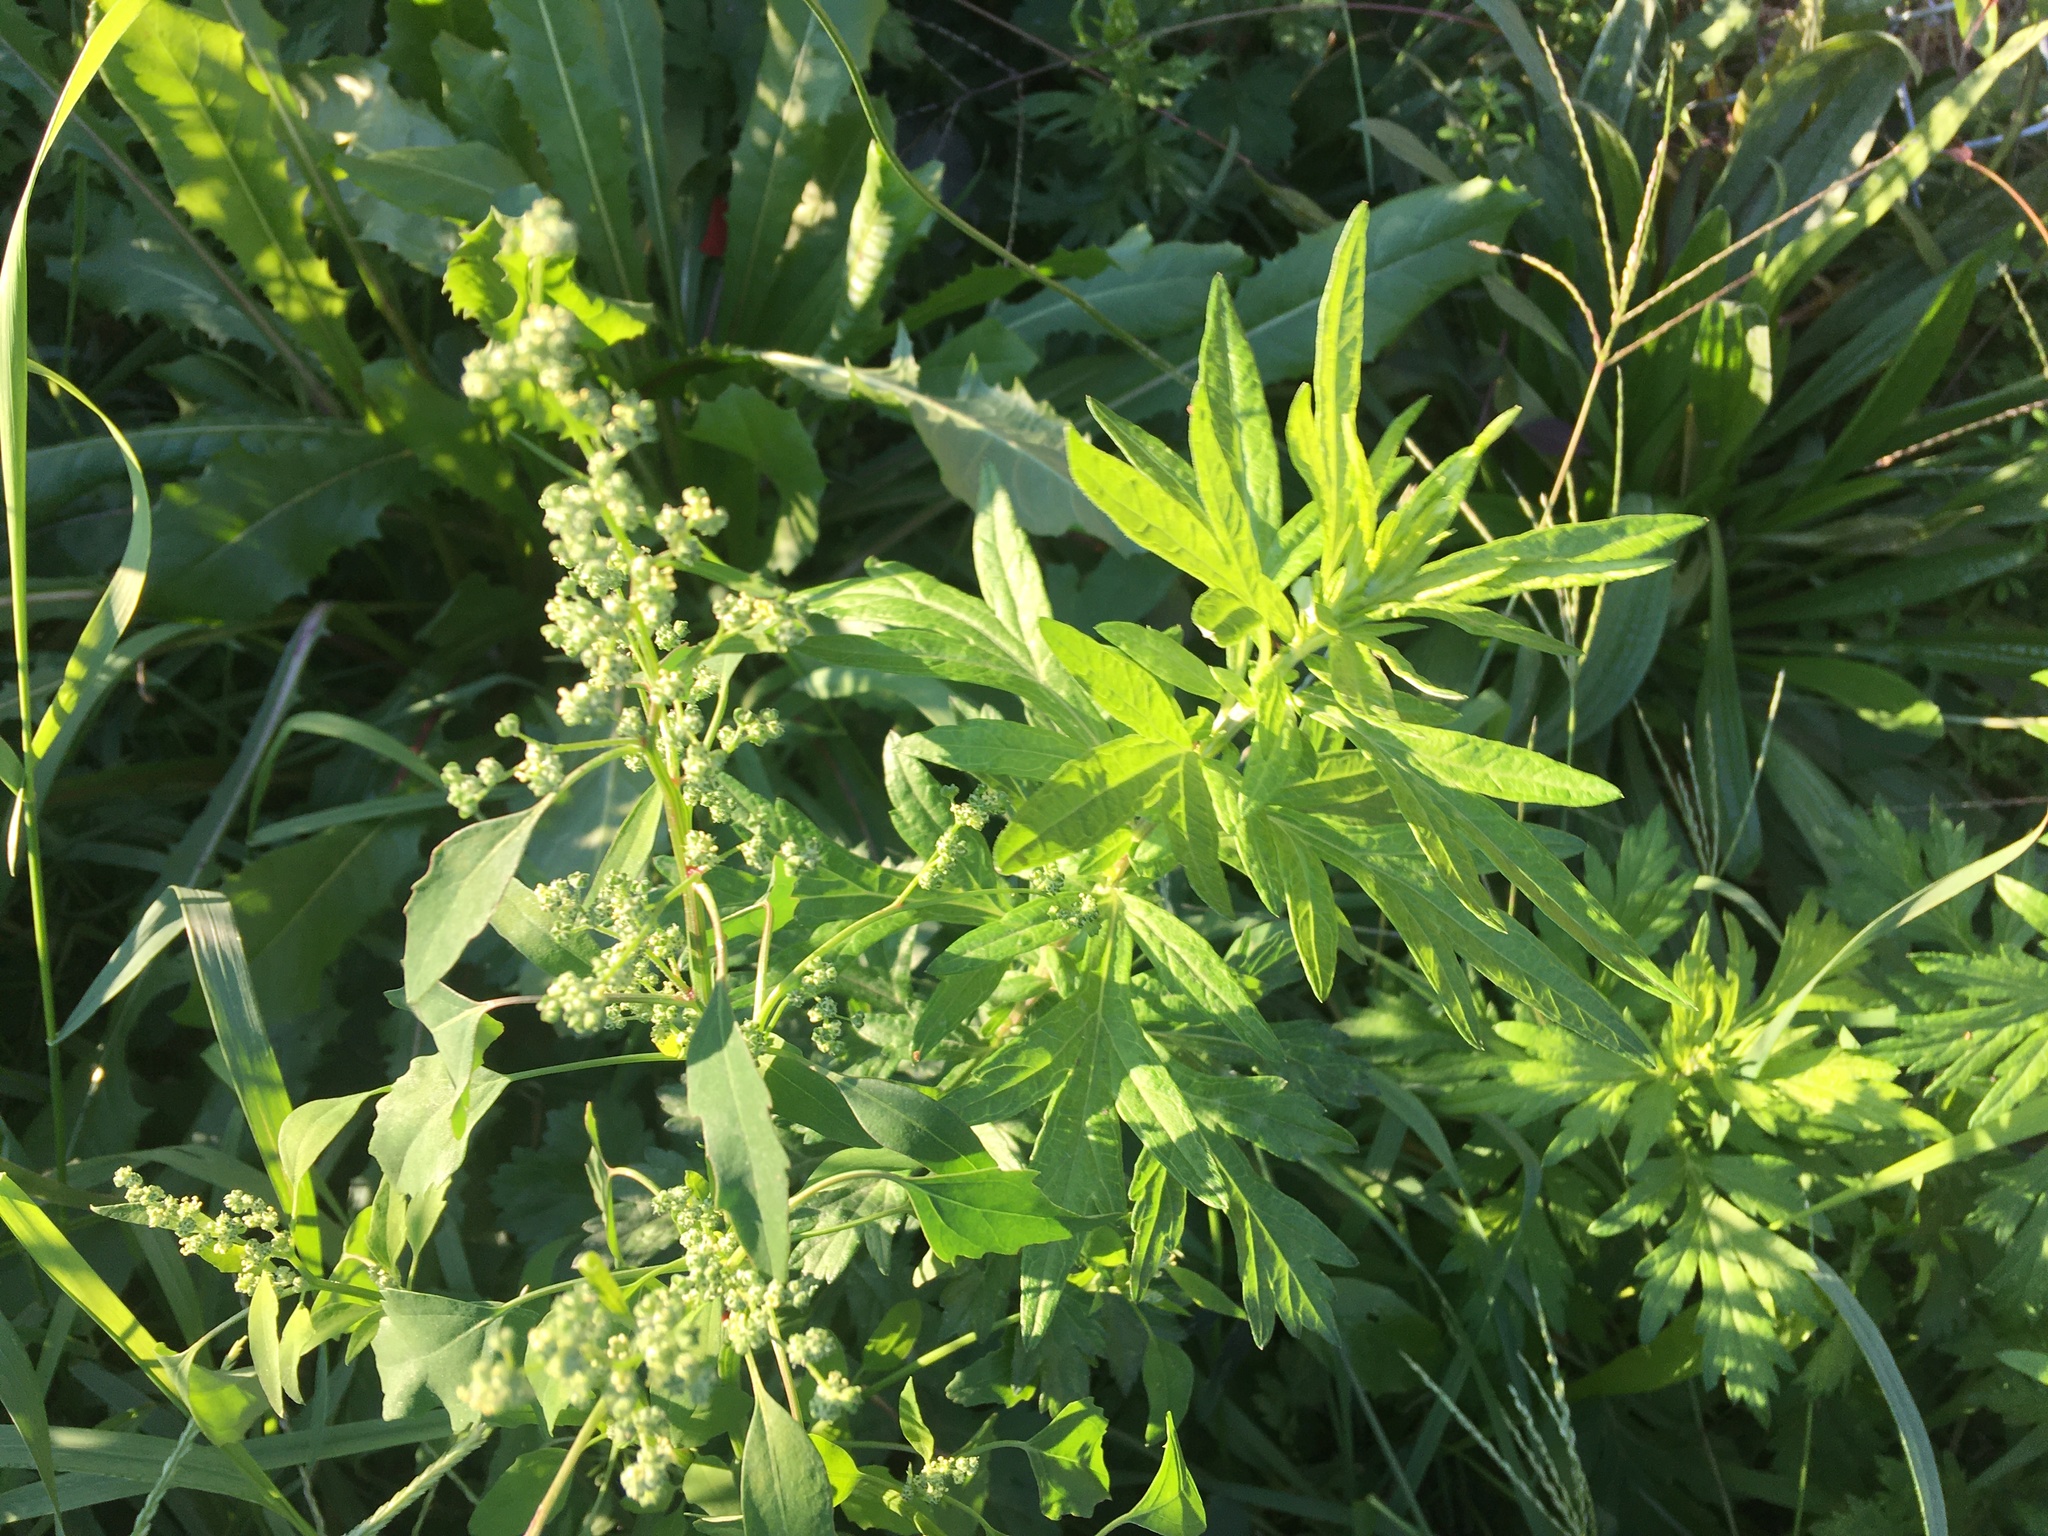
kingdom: Plantae
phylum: Tracheophyta
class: Magnoliopsida
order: Asterales
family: Asteraceae
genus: Artemisia
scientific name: Artemisia vulgaris
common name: Mugwort
